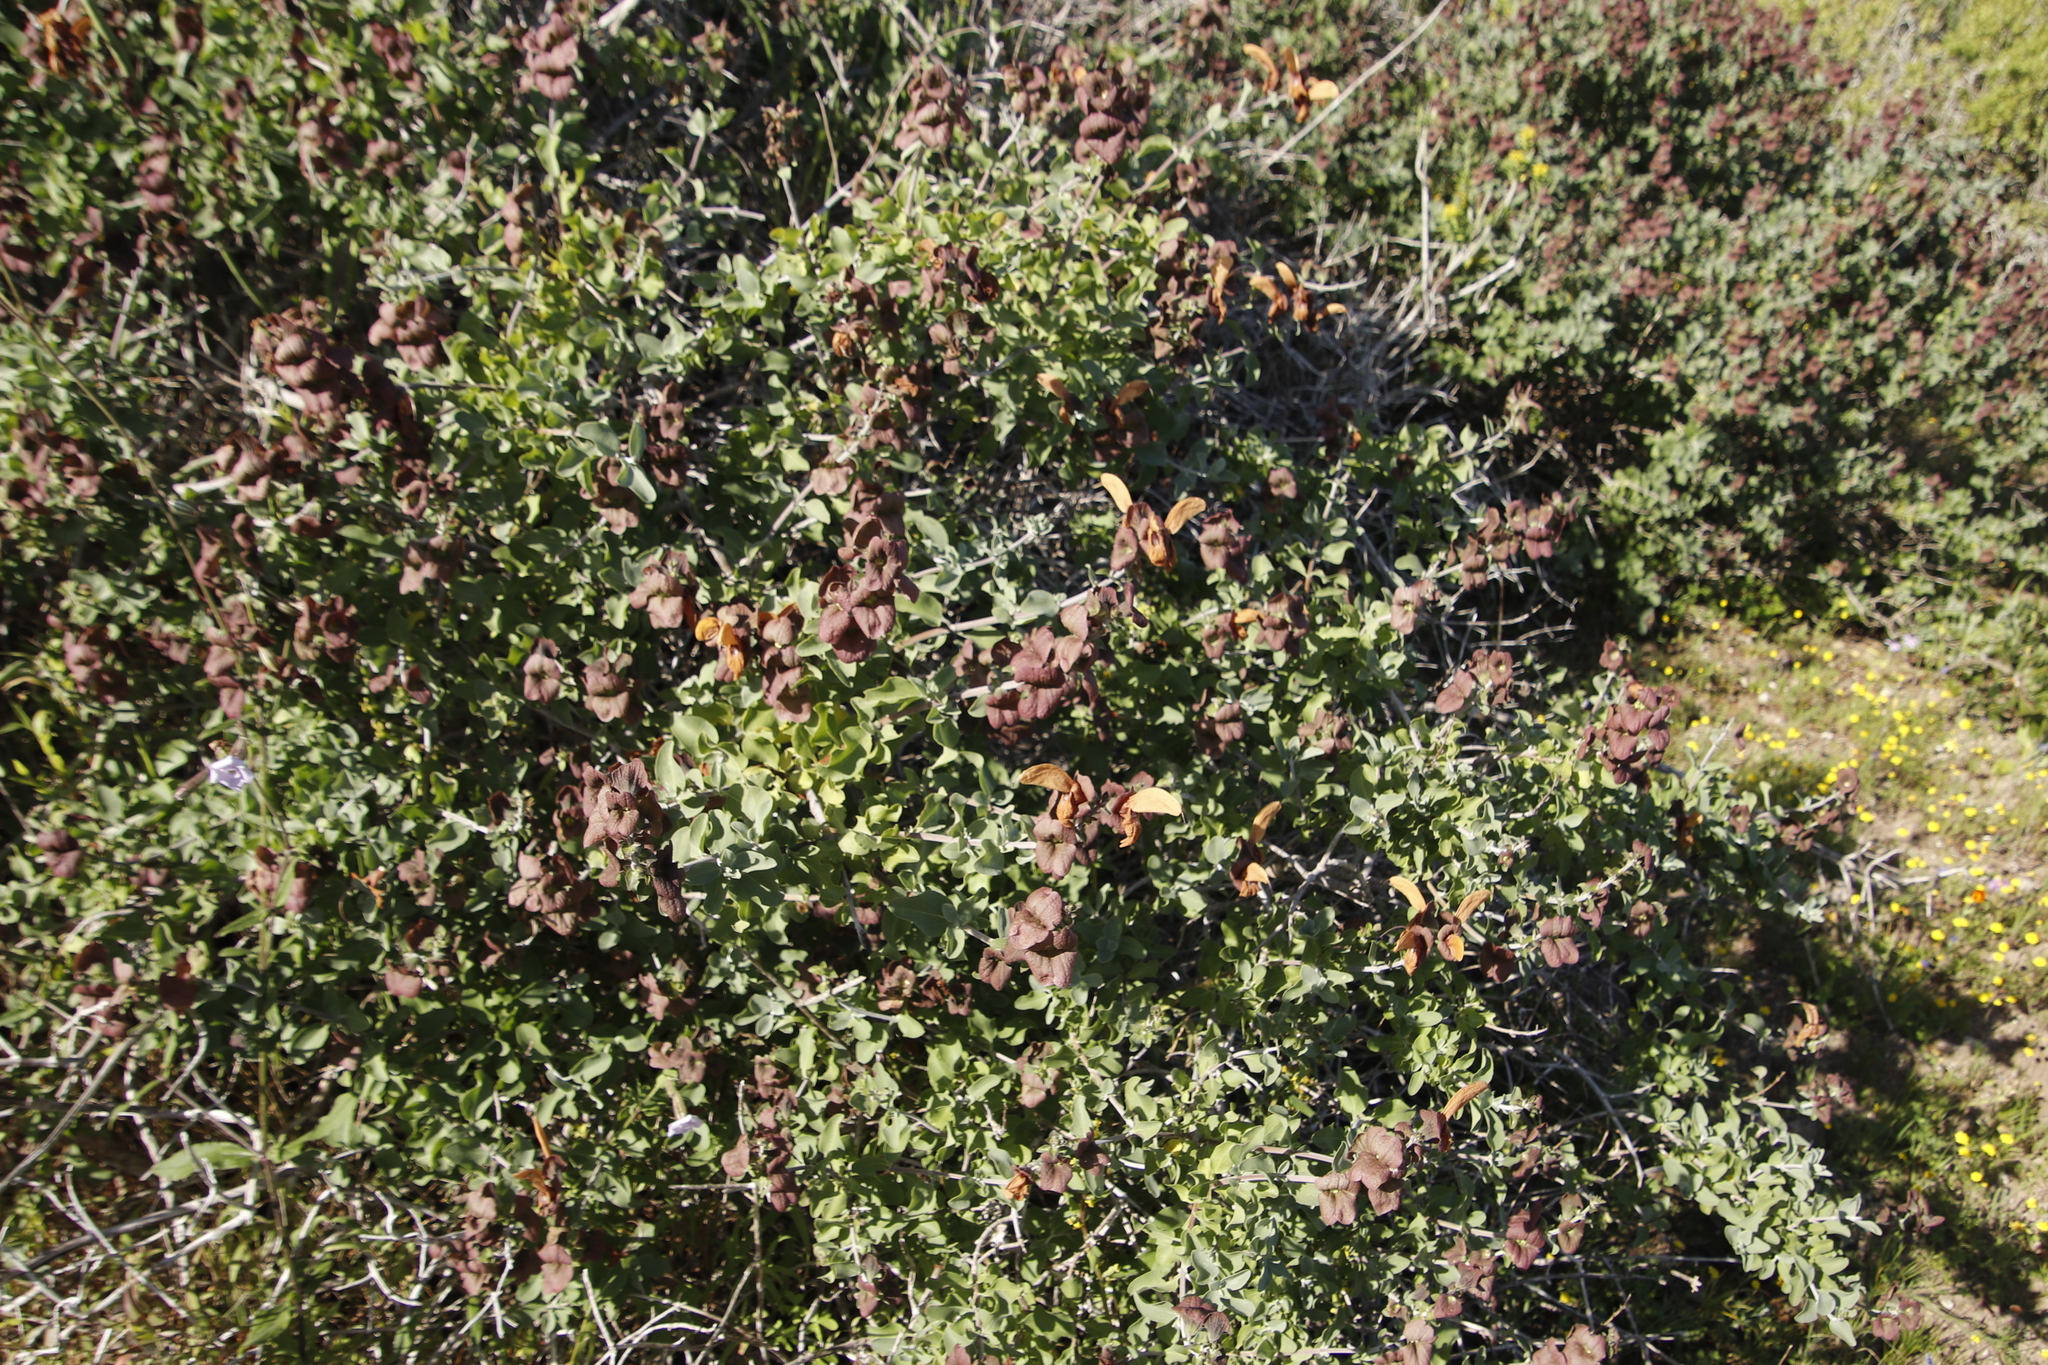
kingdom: Plantae
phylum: Tracheophyta
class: Magnoliopsida
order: Lamiales
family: Lamiaceae
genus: Salvia
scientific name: Salvia aurea
